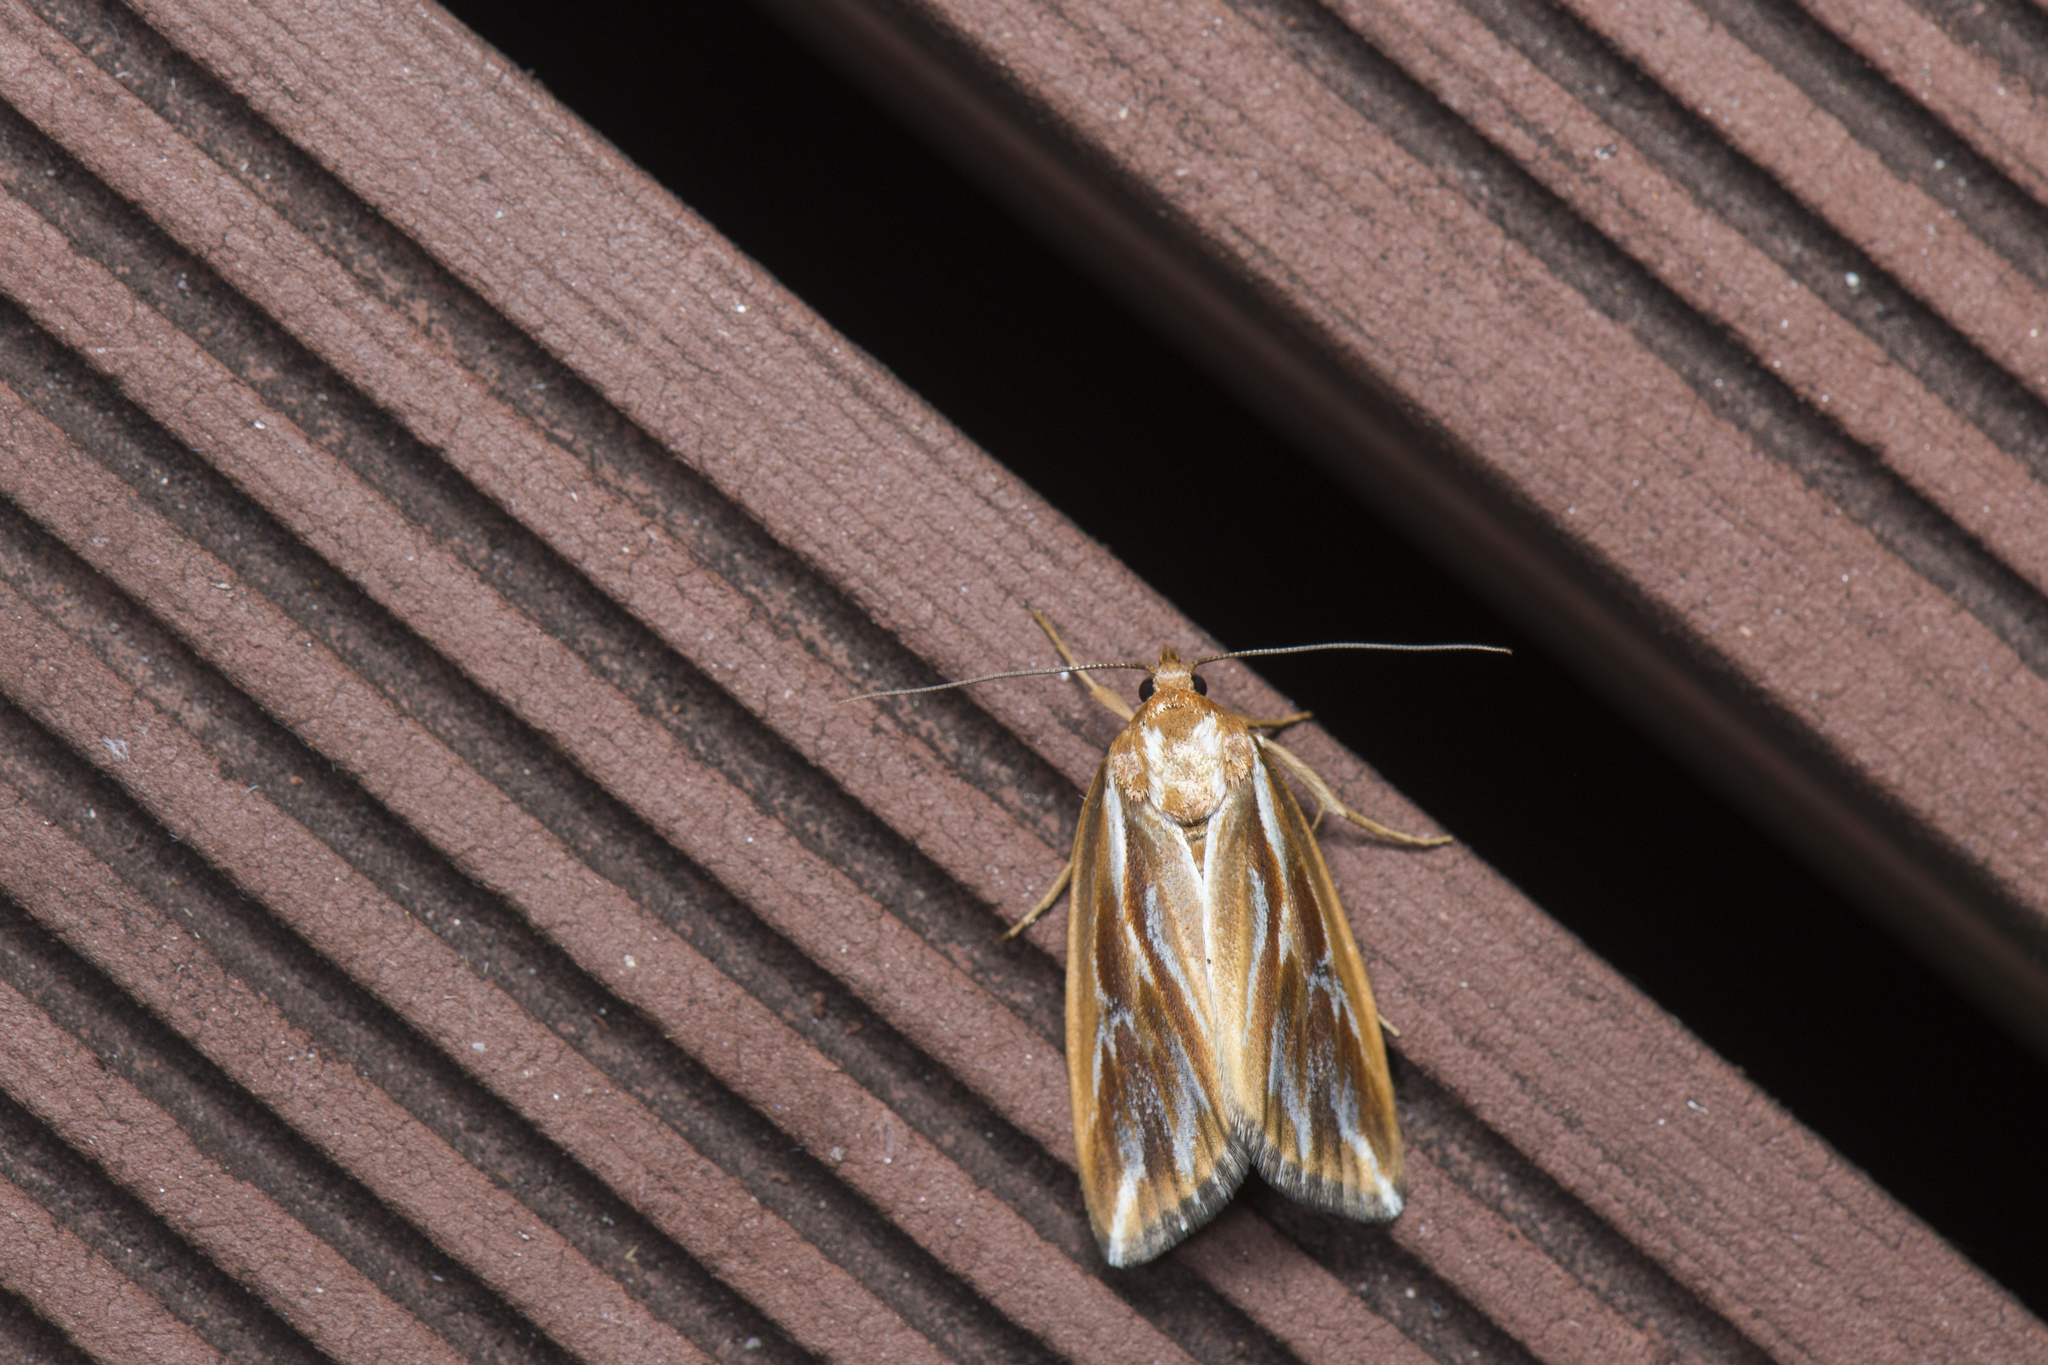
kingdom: Animalia
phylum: Arthropoda
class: Insecta
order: Lepidoptera
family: Noctuidae
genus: Narangodes
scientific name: Narangodes confluens
